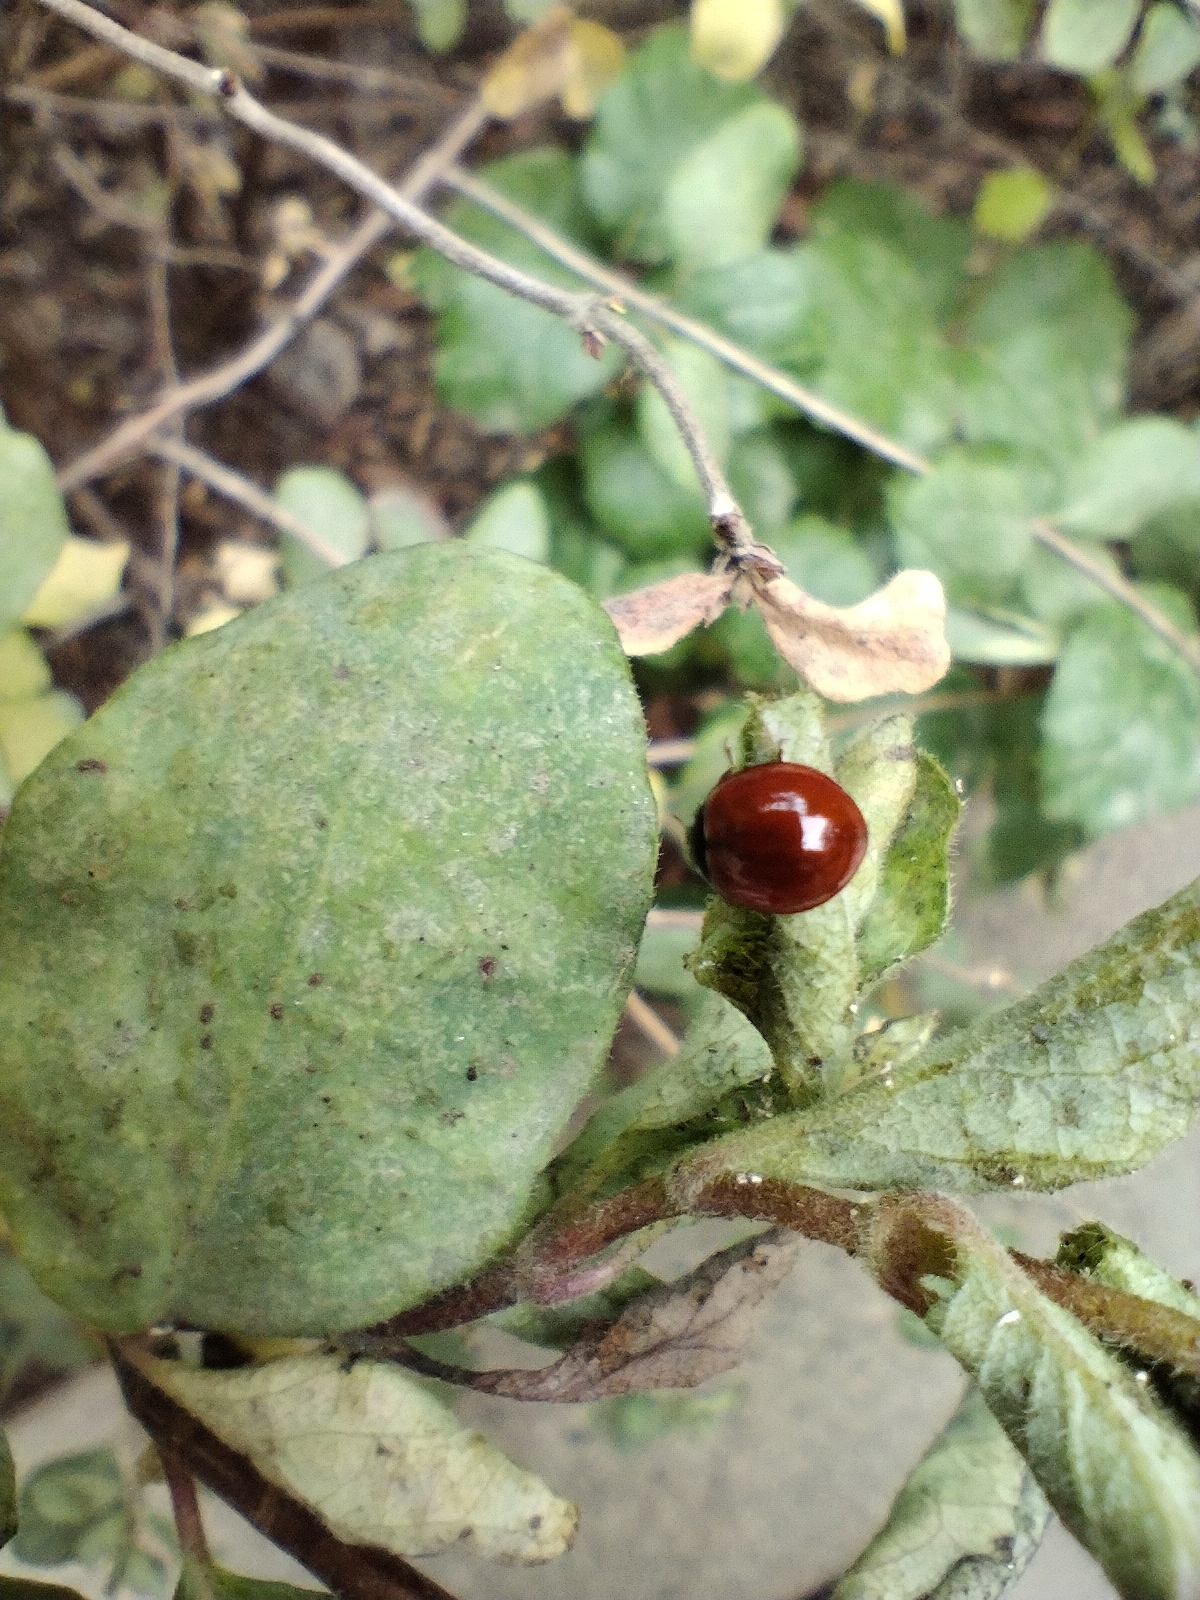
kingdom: Animalia
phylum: Arthropoda
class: Insecta
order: Coleoptera
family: Coccinellidae
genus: Cycloneda
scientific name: Cycloneda sanguinea
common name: Ladybird beetle
